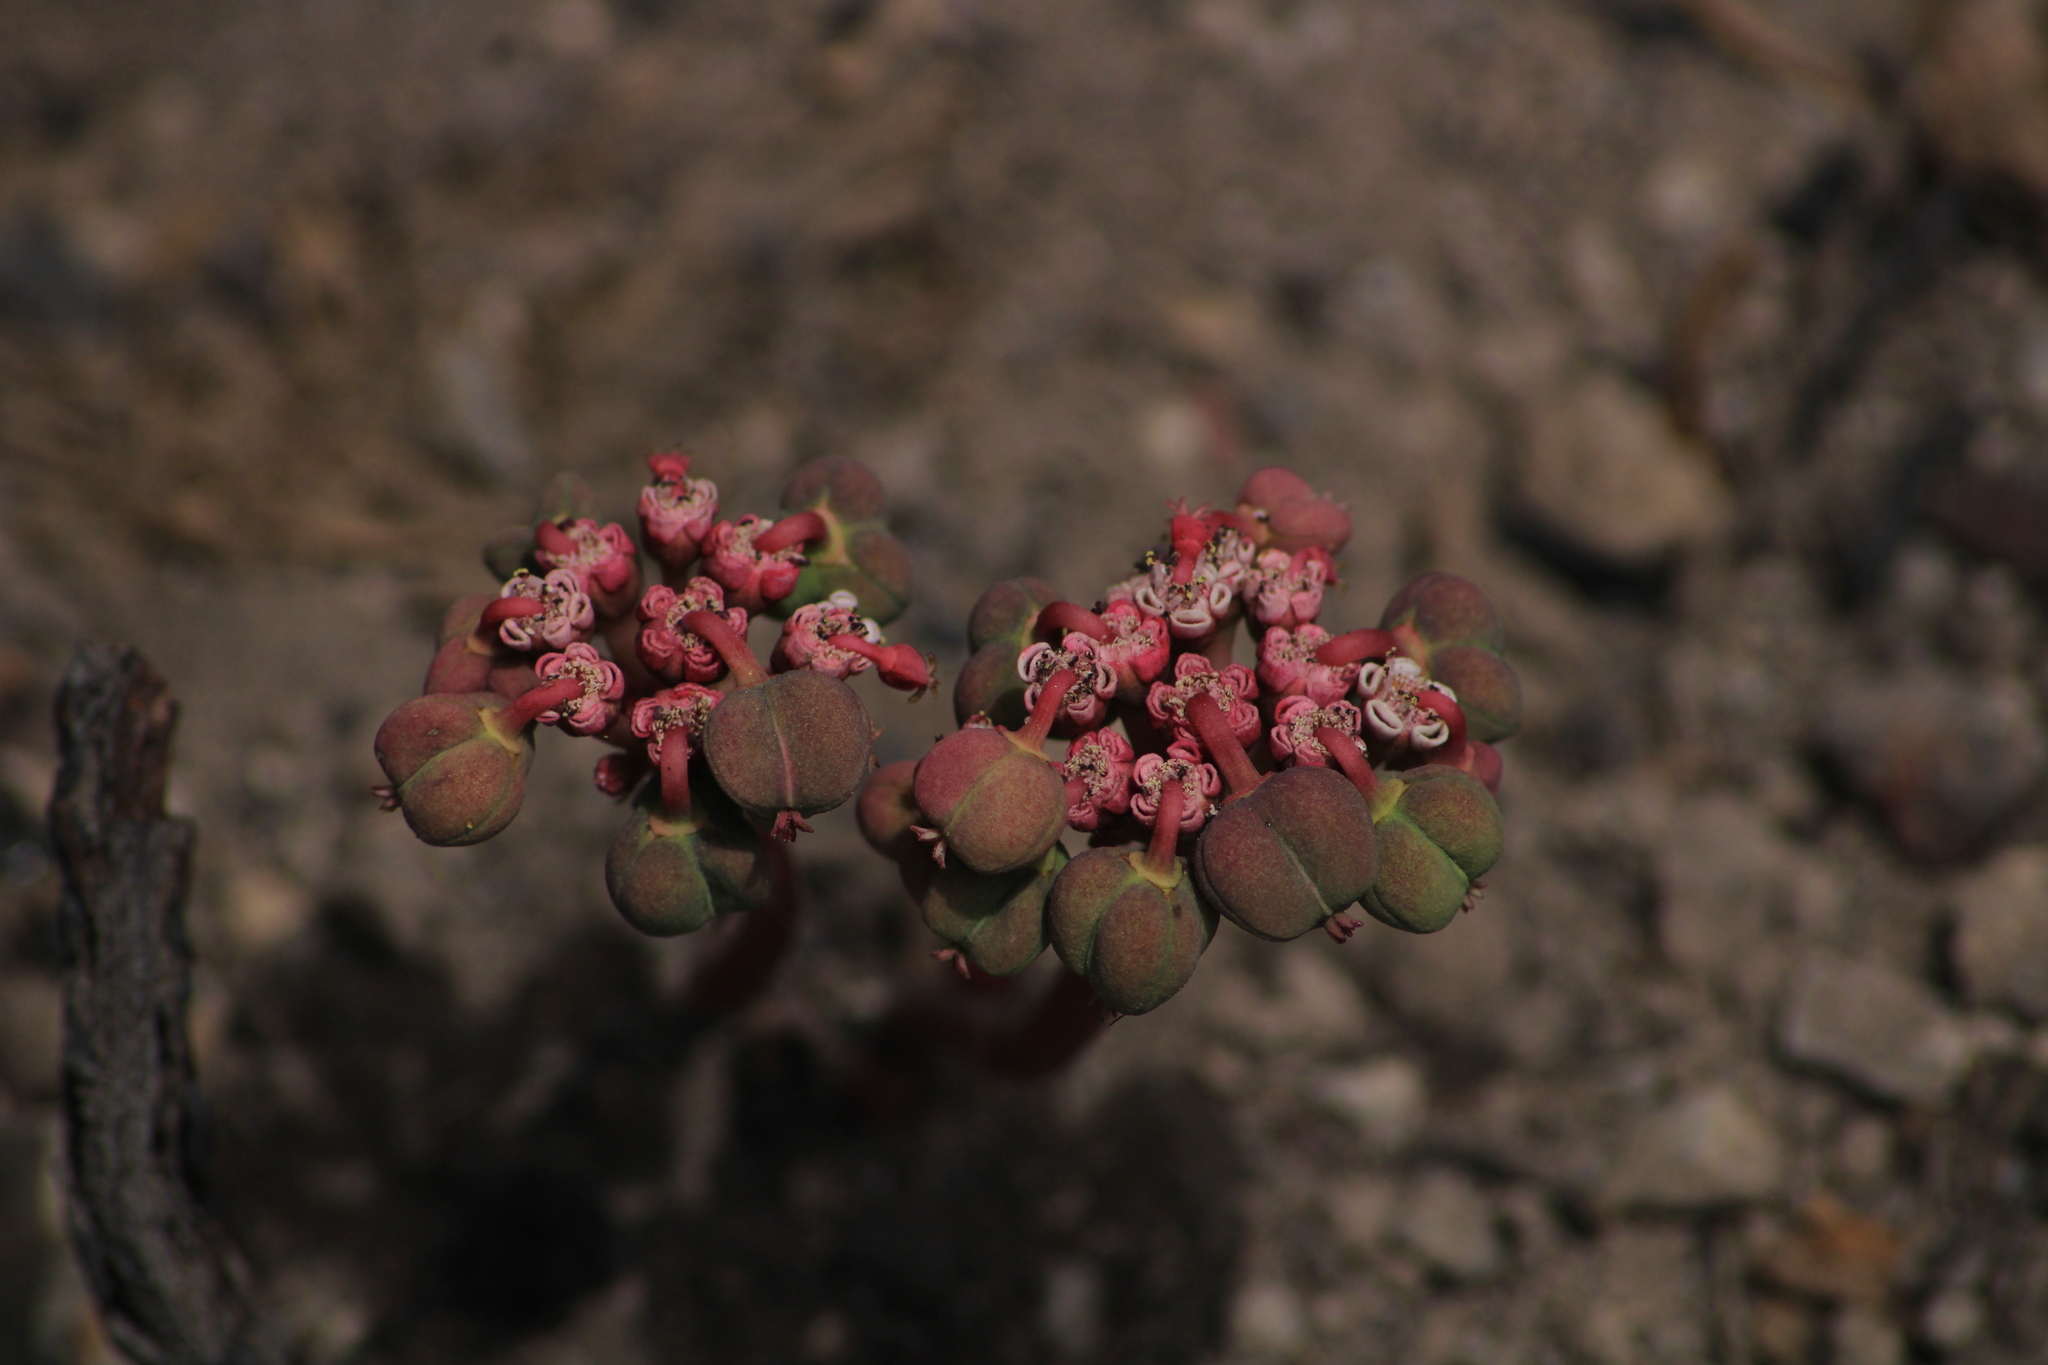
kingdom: Plantae
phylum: Tracheophyta
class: Magnoliopsida
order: Malpighiales
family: Euphorbiaceae
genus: Euphorbia
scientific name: Euphorbia radians
